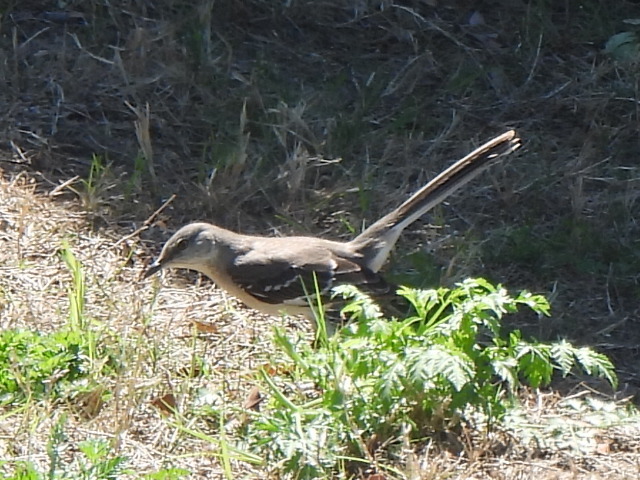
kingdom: Animalia
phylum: Chordata
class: Aves
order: Passeriformes
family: Mimidae
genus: Mimus
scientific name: Mimus polyglottos
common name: Northern mockingbird
